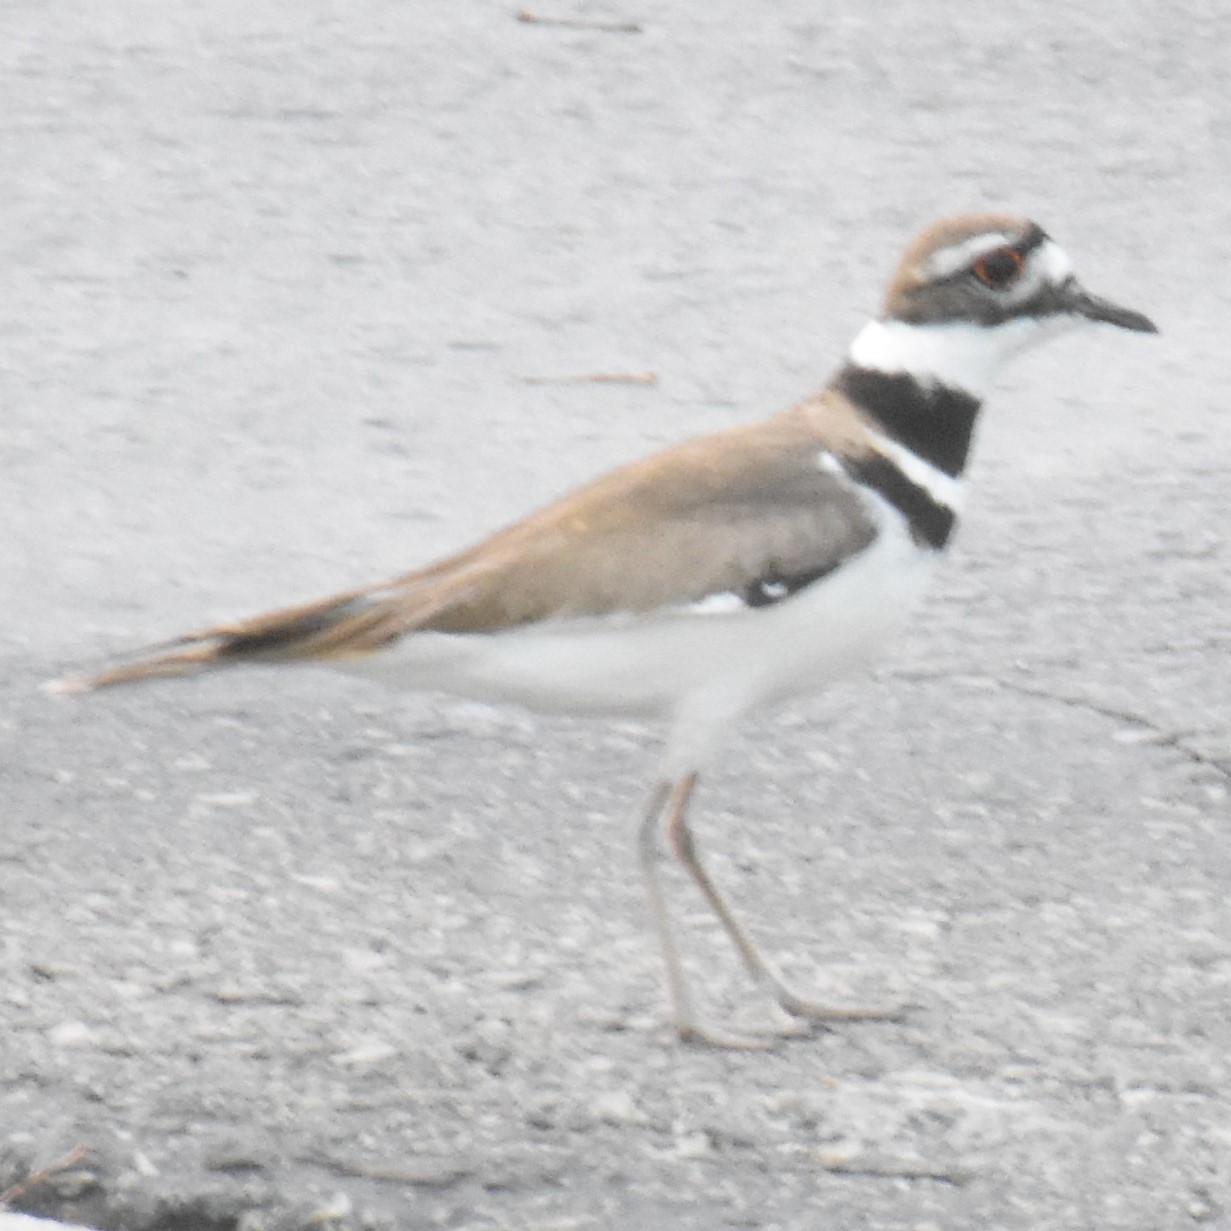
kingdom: Animalia
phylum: Chordata
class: Aves
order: Charadriiformes
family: Charadriidae
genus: Charadrius
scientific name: Charadrius vociferus
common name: Killdeer
